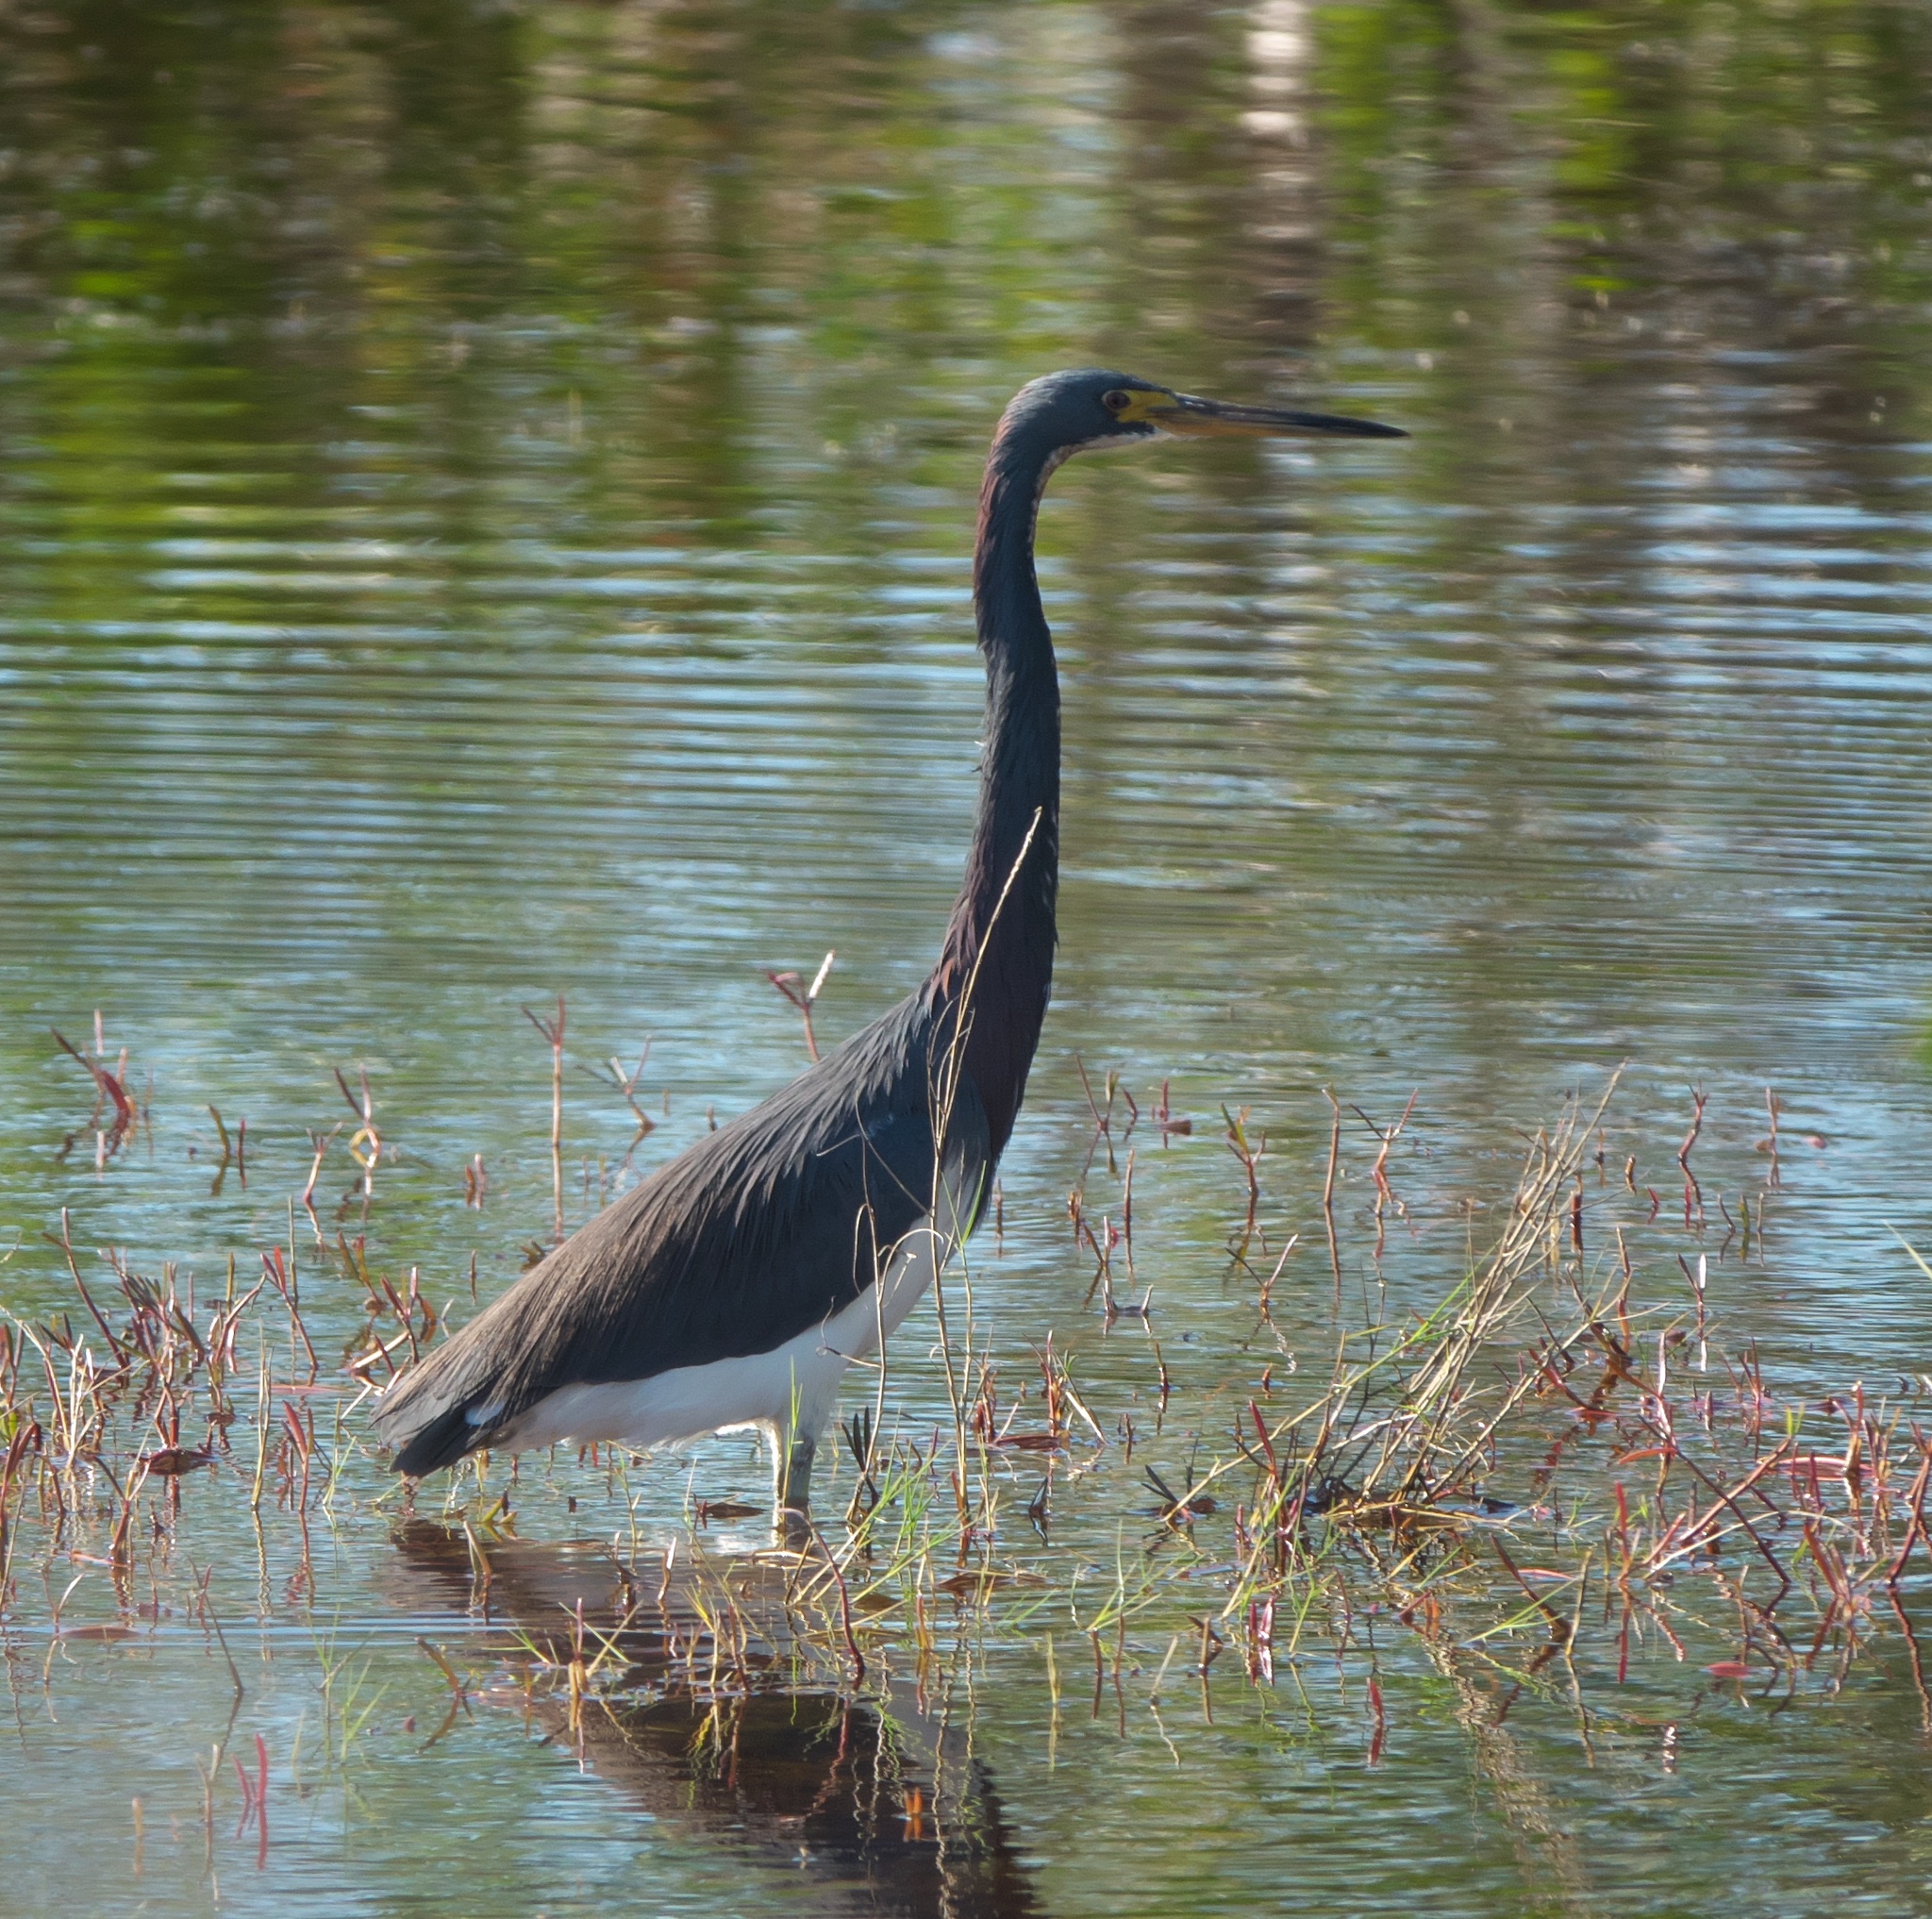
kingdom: Animalia
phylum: Chordata
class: Aves
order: Pelecaniformes
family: Ardeidae
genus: Egretta
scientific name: Egretta tricolor
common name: Tricolored heron
